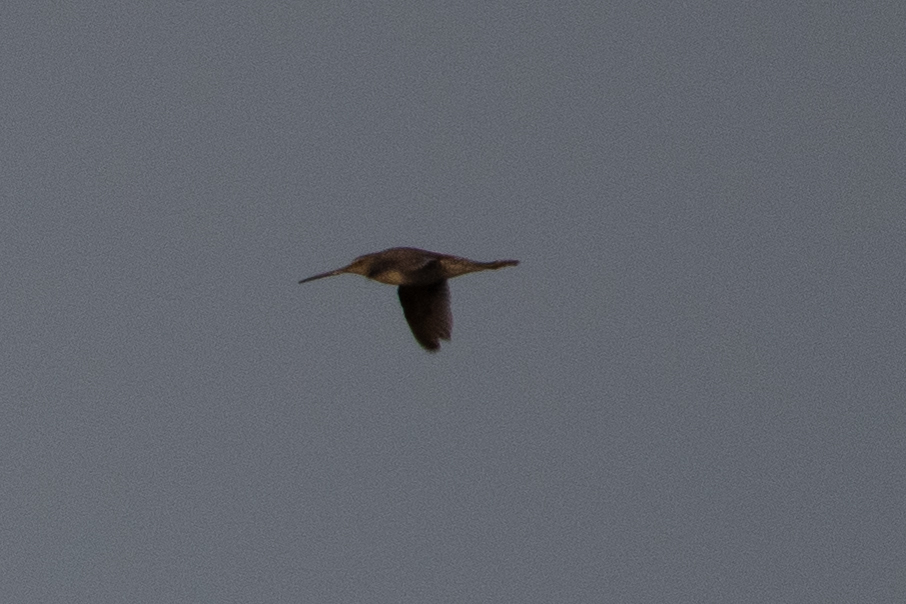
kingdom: Animalia
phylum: Chordata
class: Aves
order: Charadriiformes
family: Scolopacidae
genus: Limnodromus
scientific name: Limnodromus scolopaceus
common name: Long-billed dowitcher
